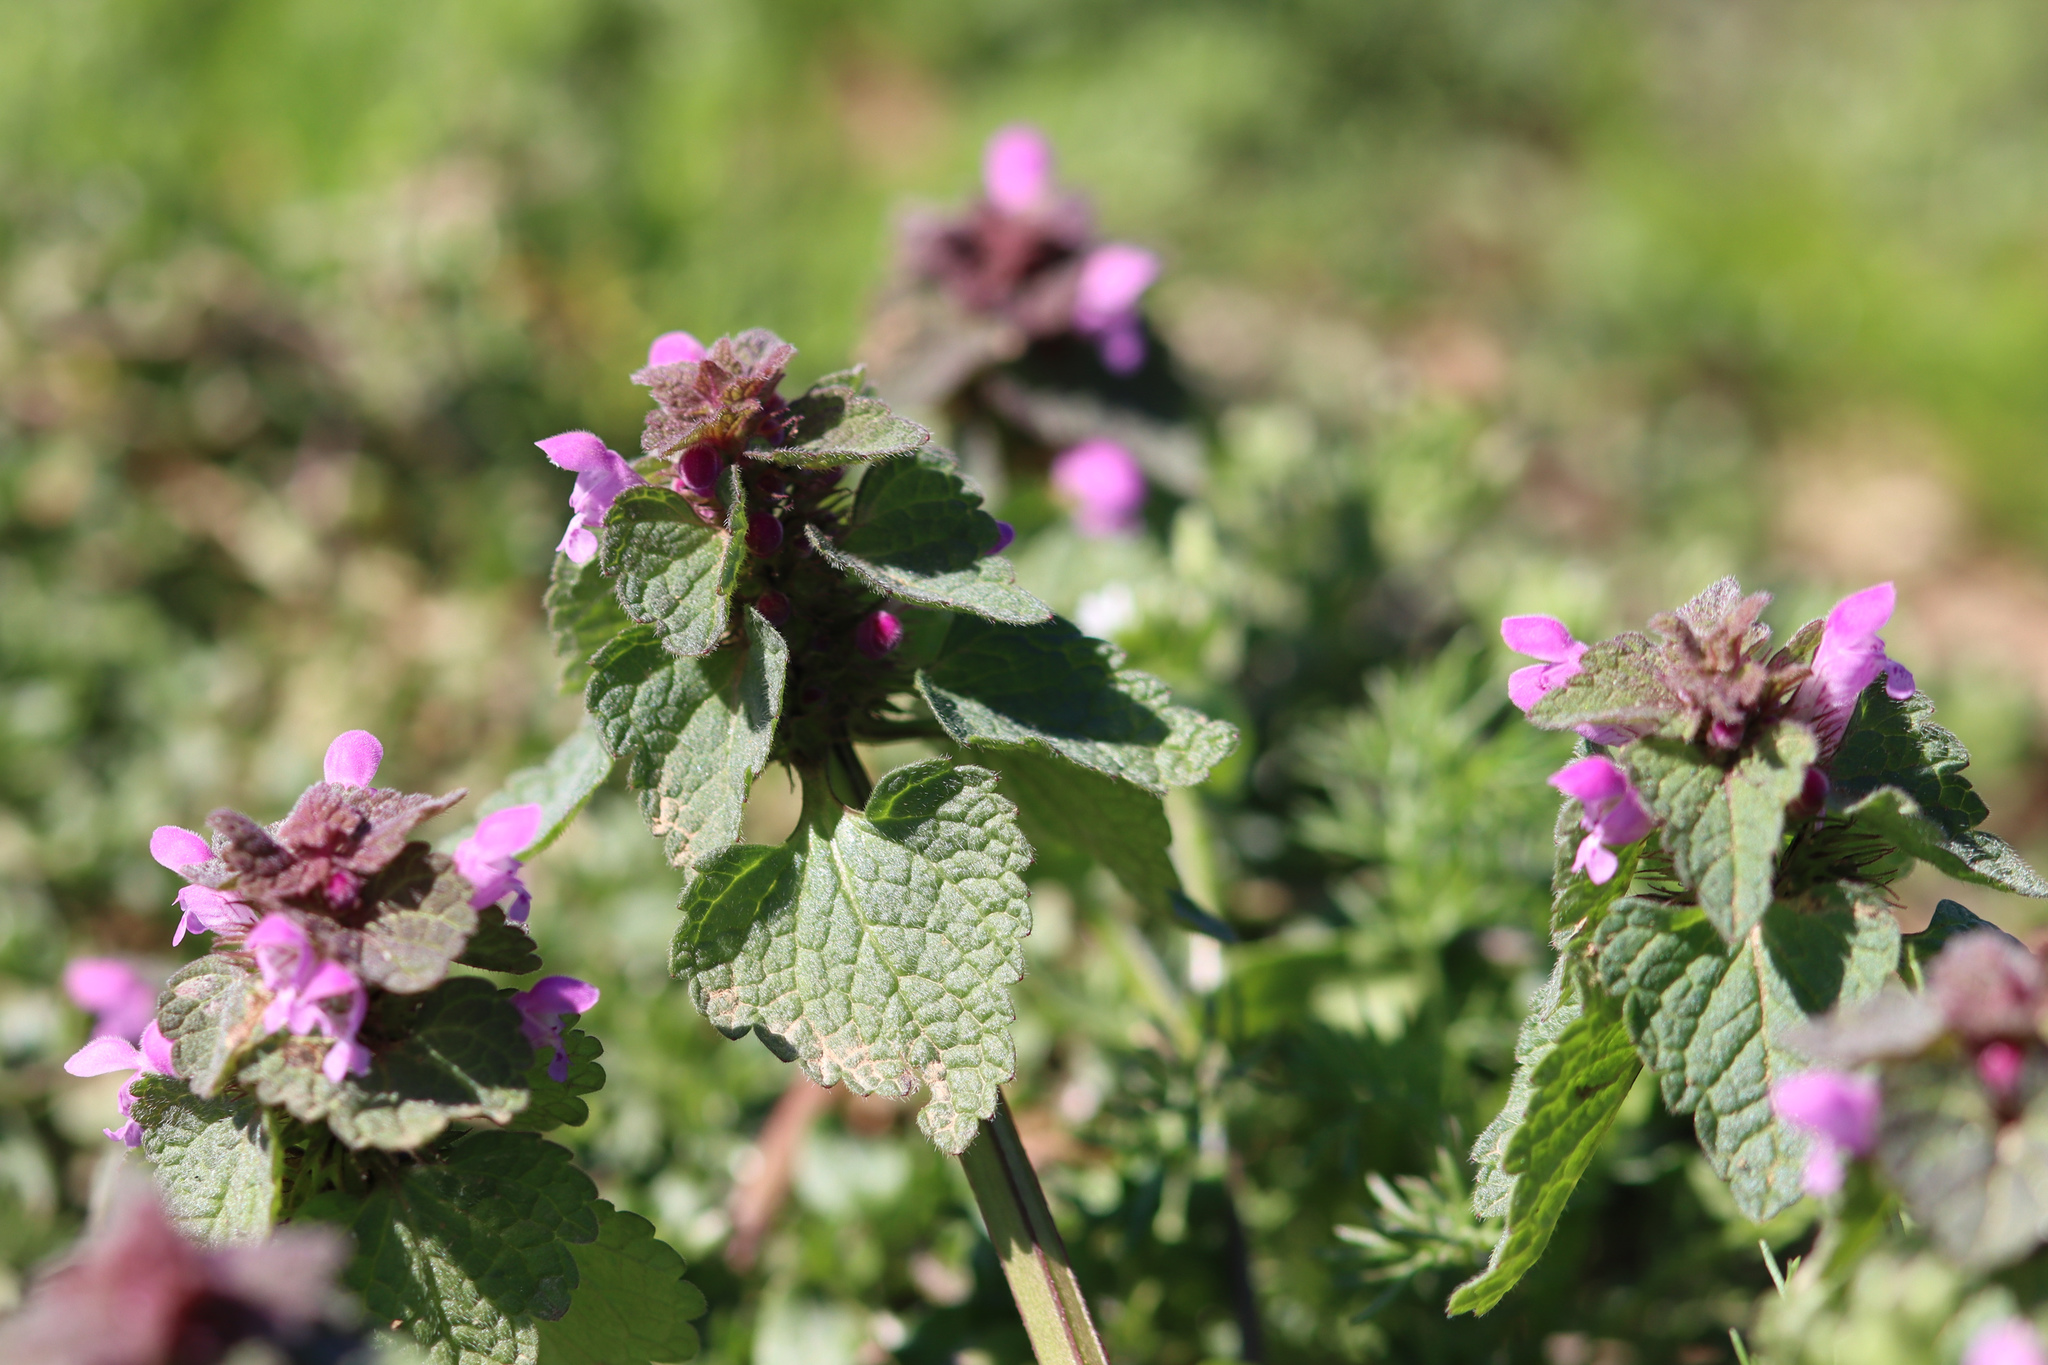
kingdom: Plantae
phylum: Tracheophyta
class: Magnoliopsida
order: Lamiales
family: Lamiaceae
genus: Lamium
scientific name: Lamium purpureum
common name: Red dead-nettle
